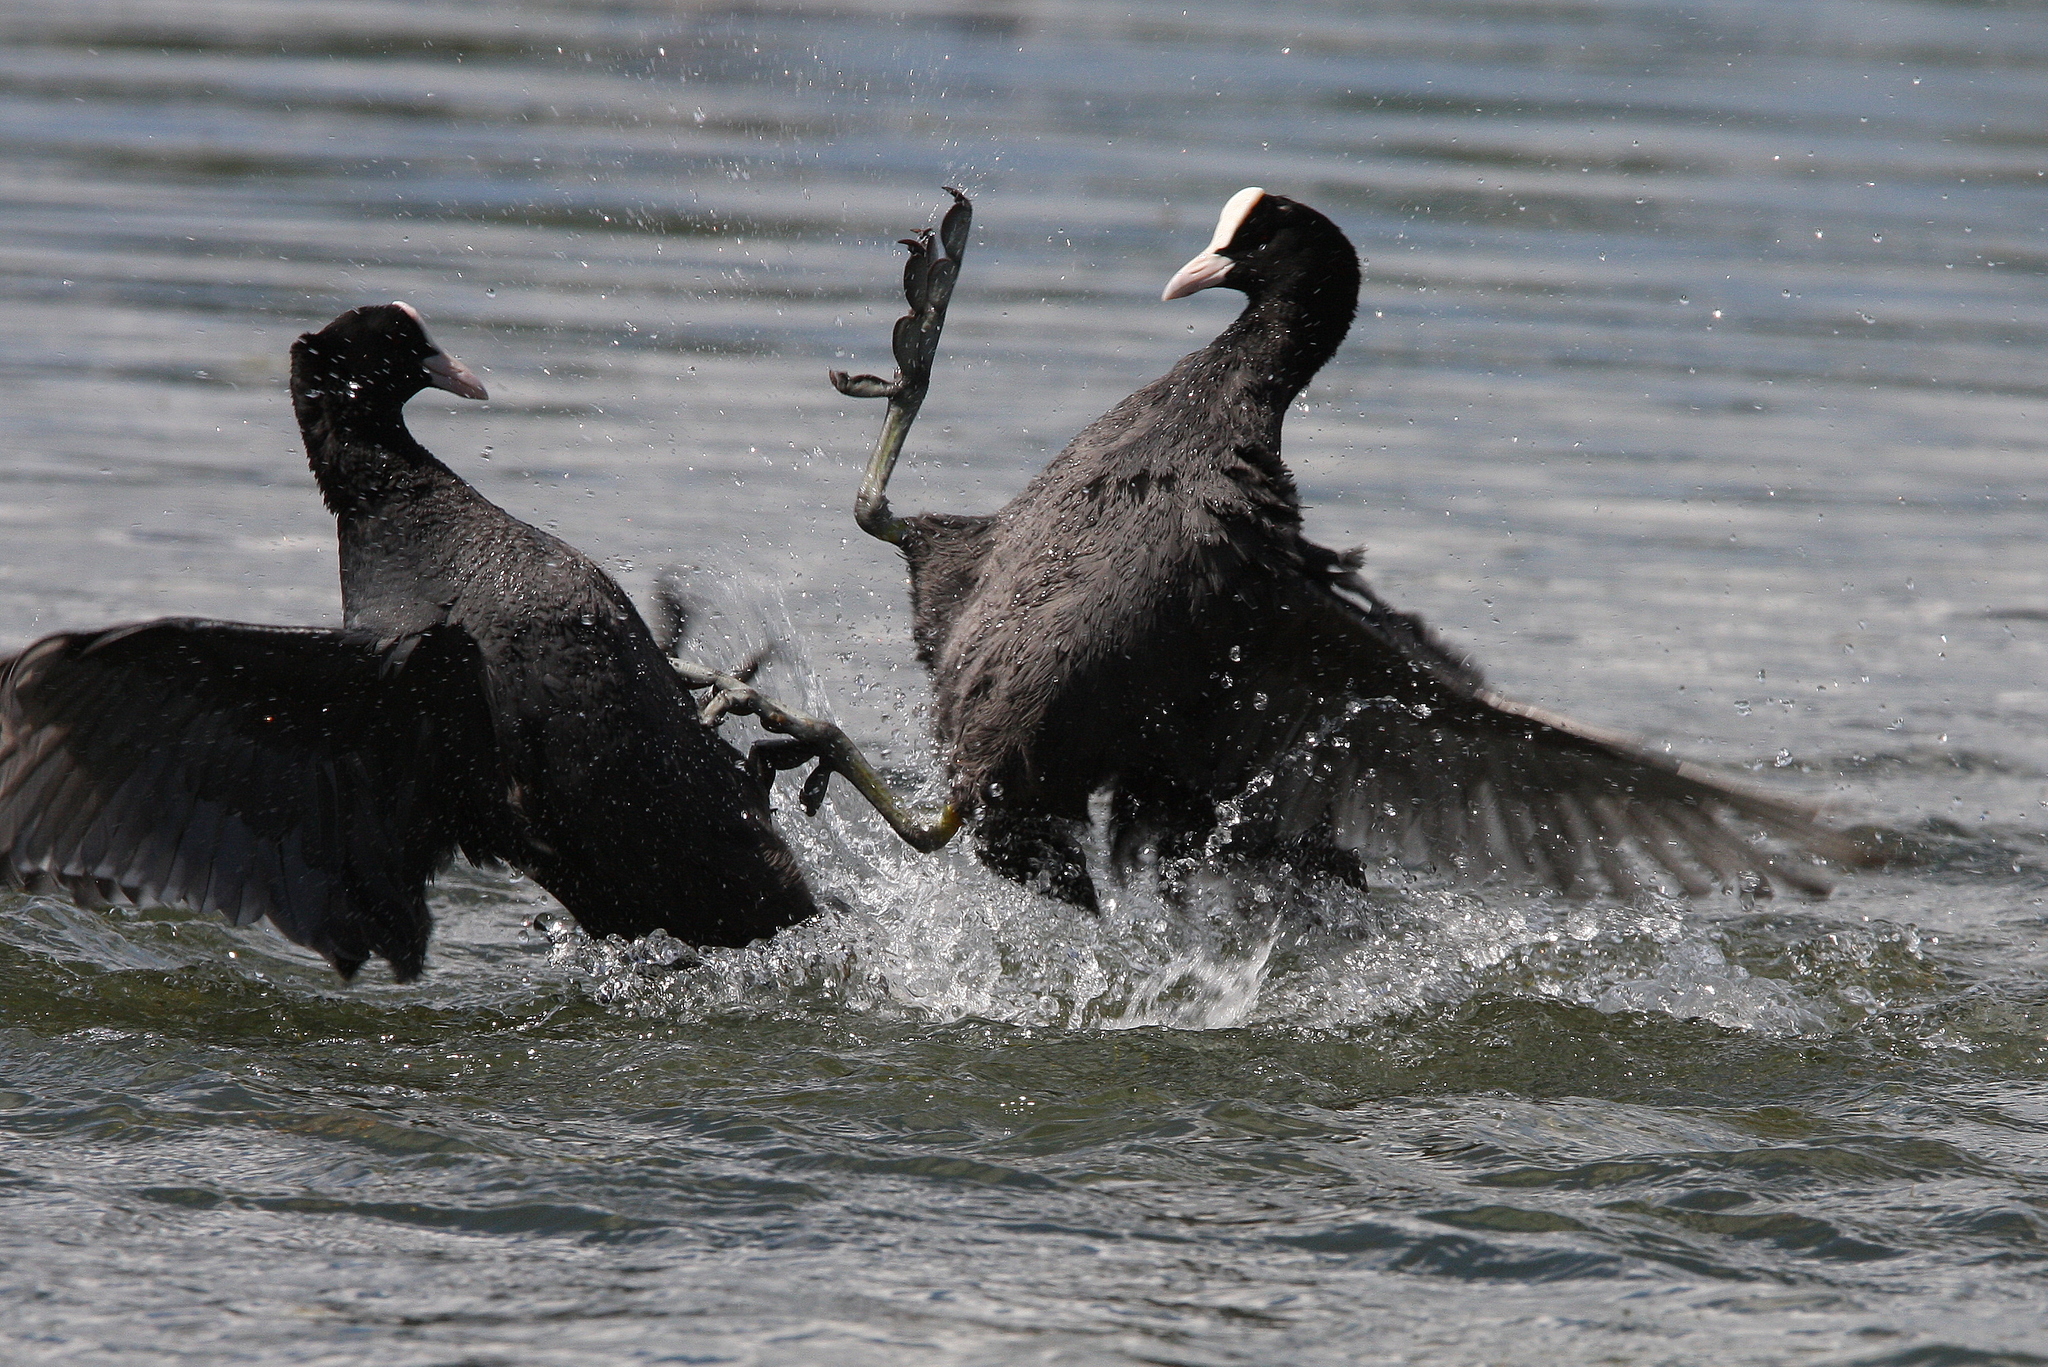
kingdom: Animalia
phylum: Chordata
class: Aves
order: Gruiformes
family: Rallidae
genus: Fulica
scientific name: Fulica atra
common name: Eurasian coot
